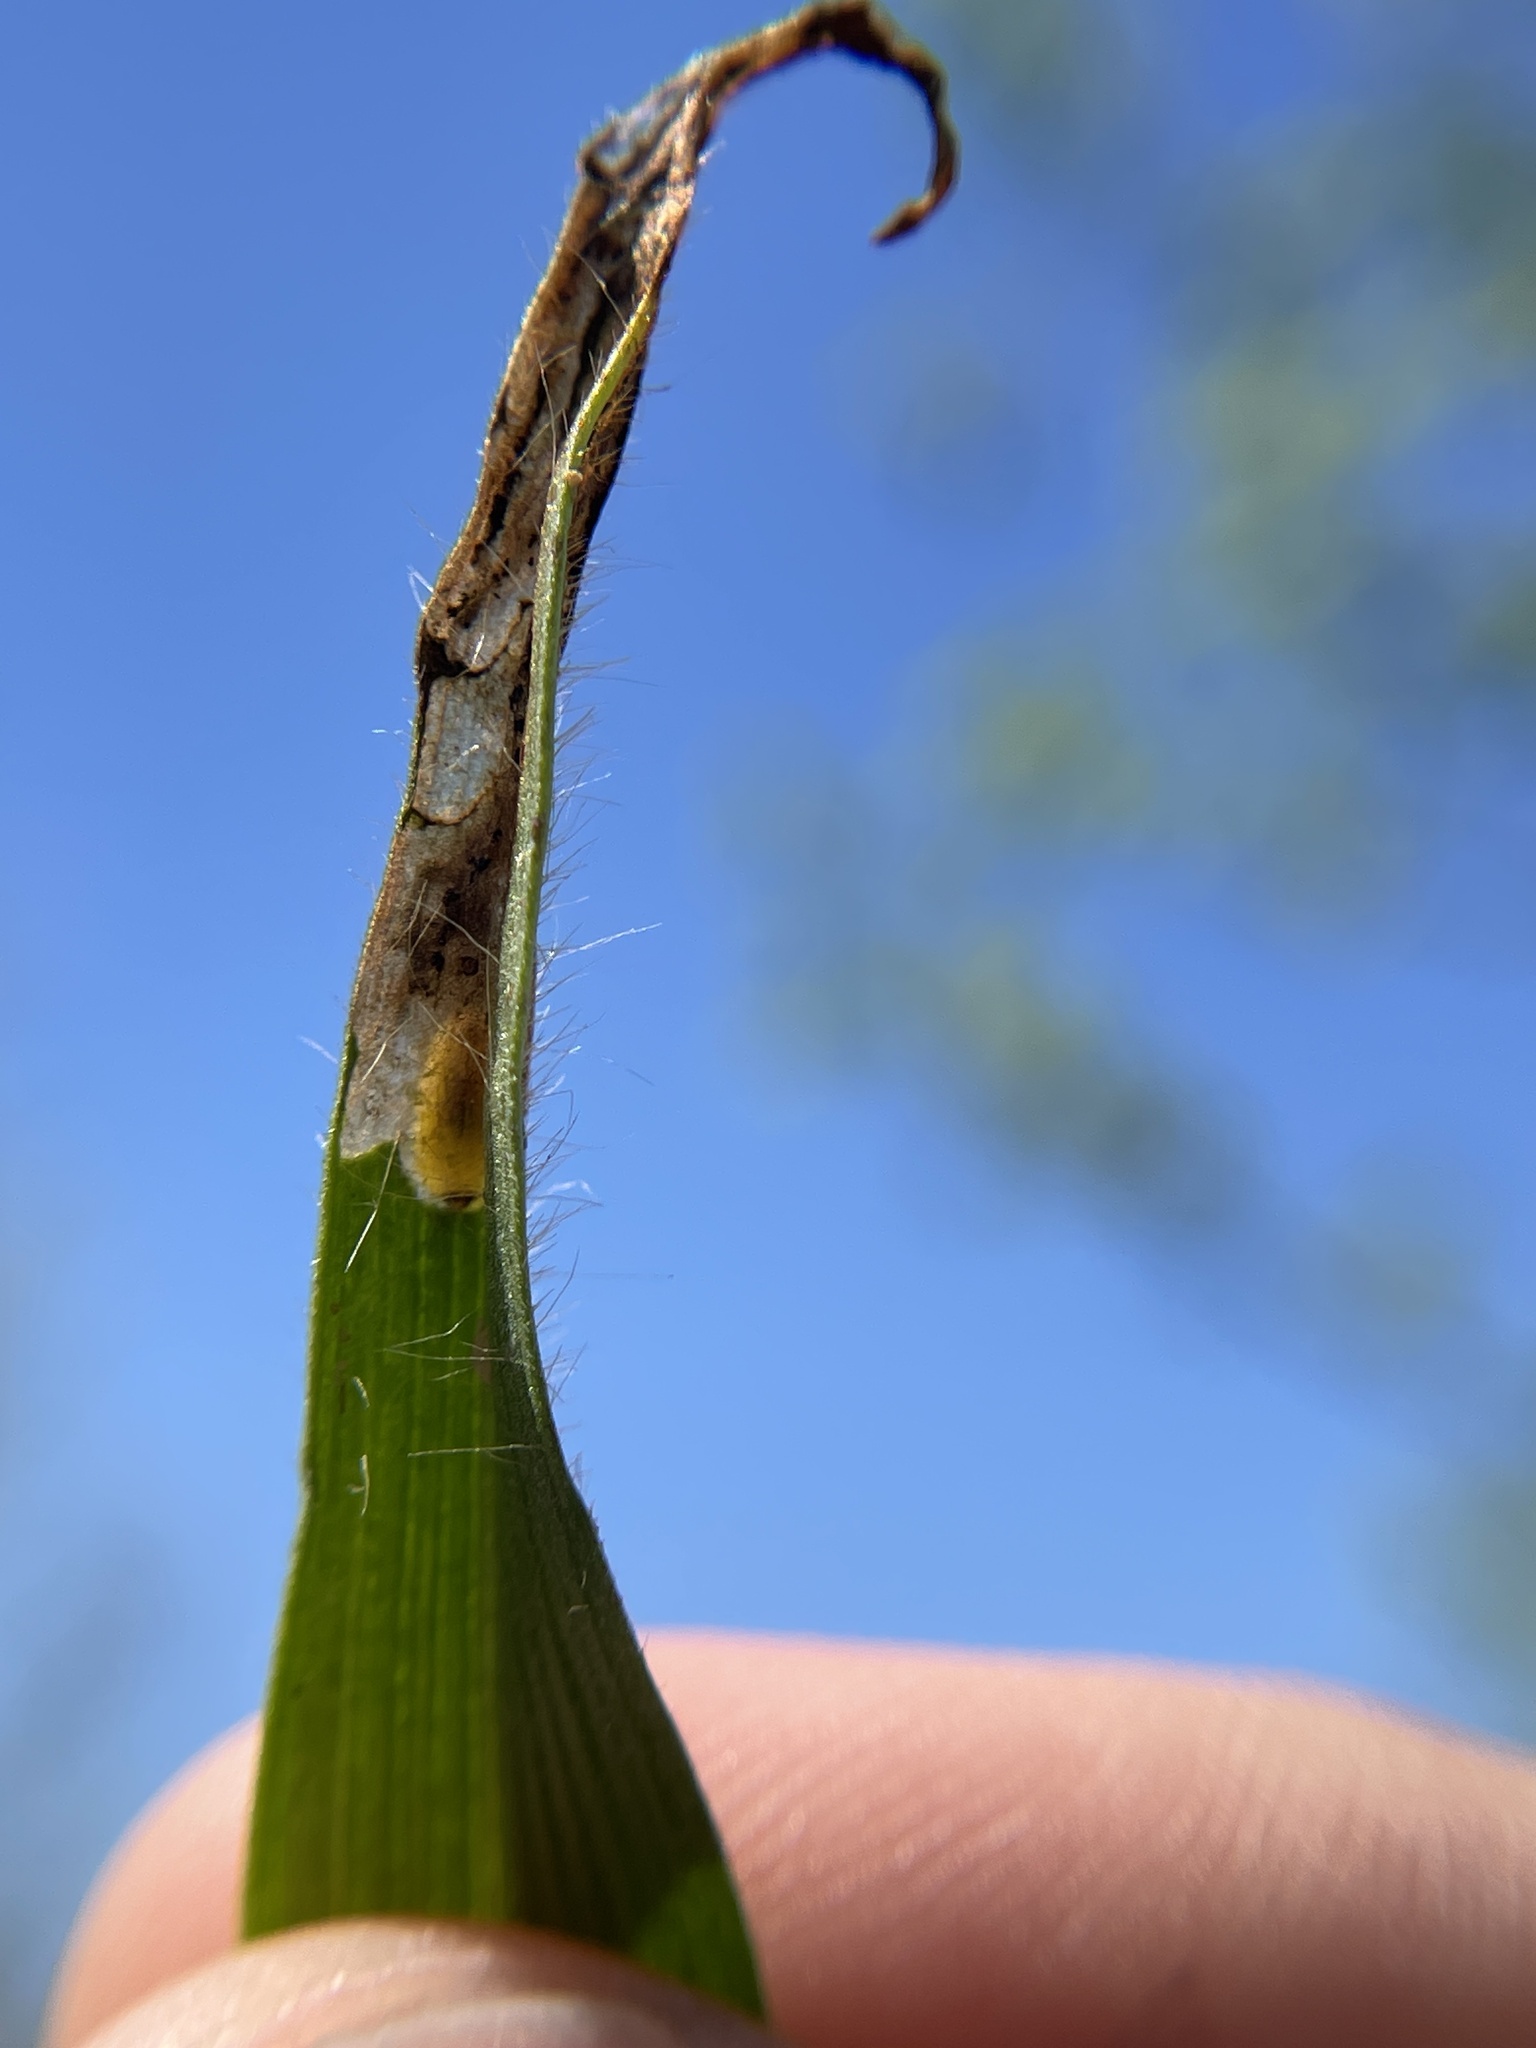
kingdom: Animalia
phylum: Arthropoda
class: Insecta
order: Coleoptera
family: Chrysomelidae
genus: Oulema
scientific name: Oulema palustris
